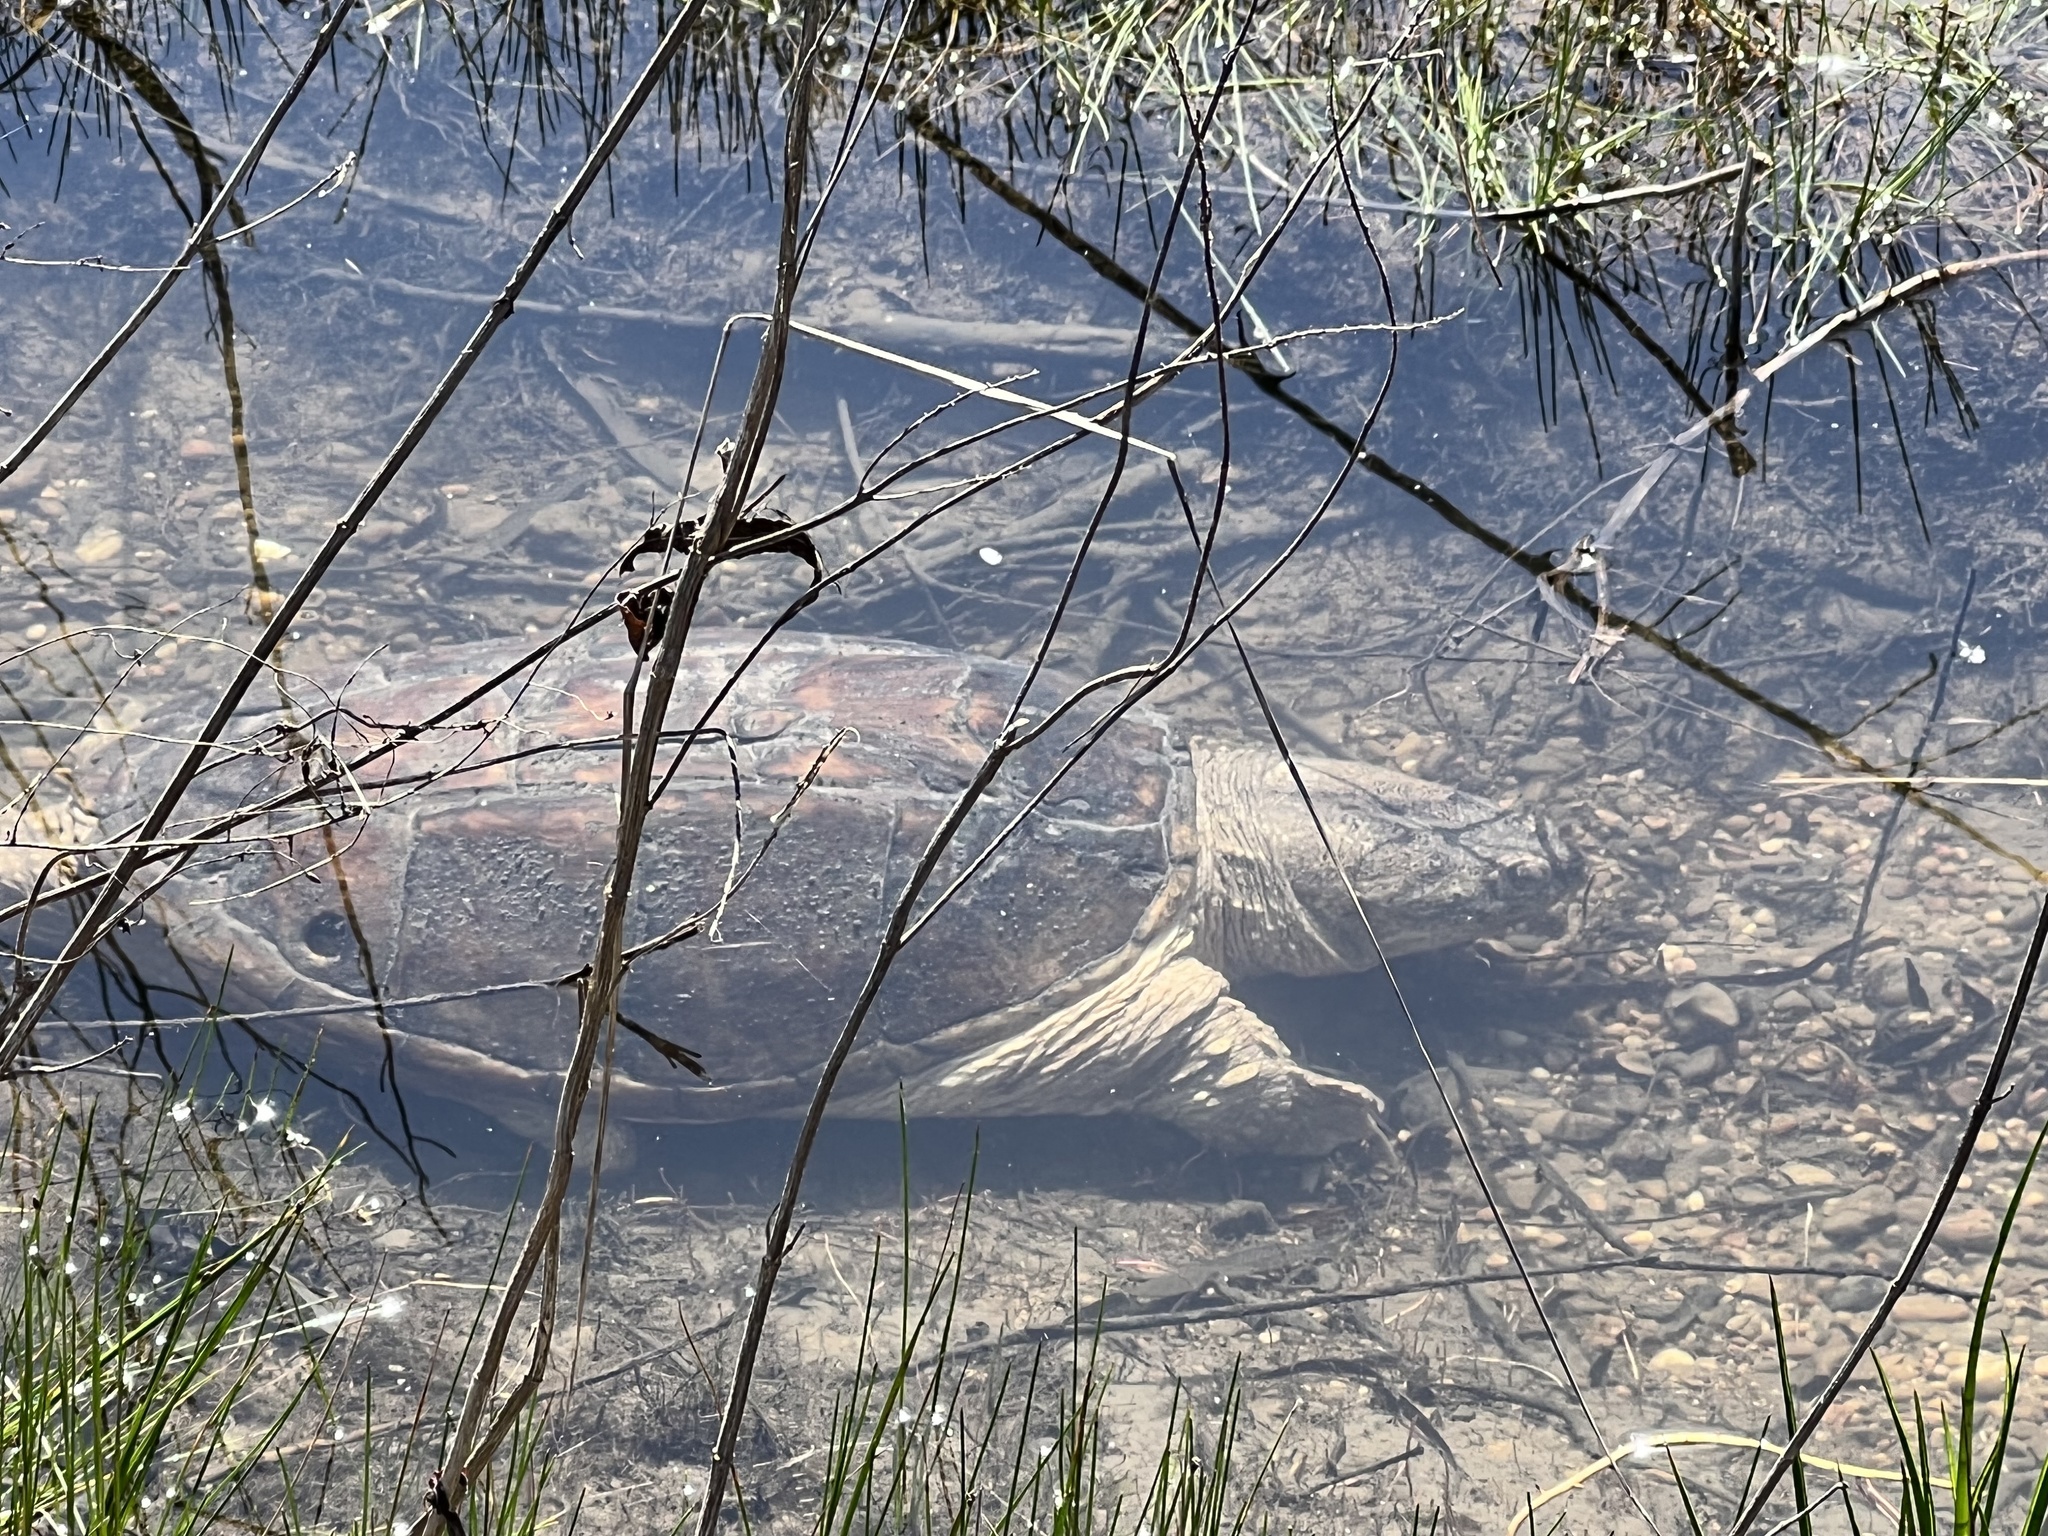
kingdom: Animalia
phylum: Chordata
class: Testudines
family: Chelydridae
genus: Chelydra
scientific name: Chelydra serpentina
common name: Common snapping turtle
